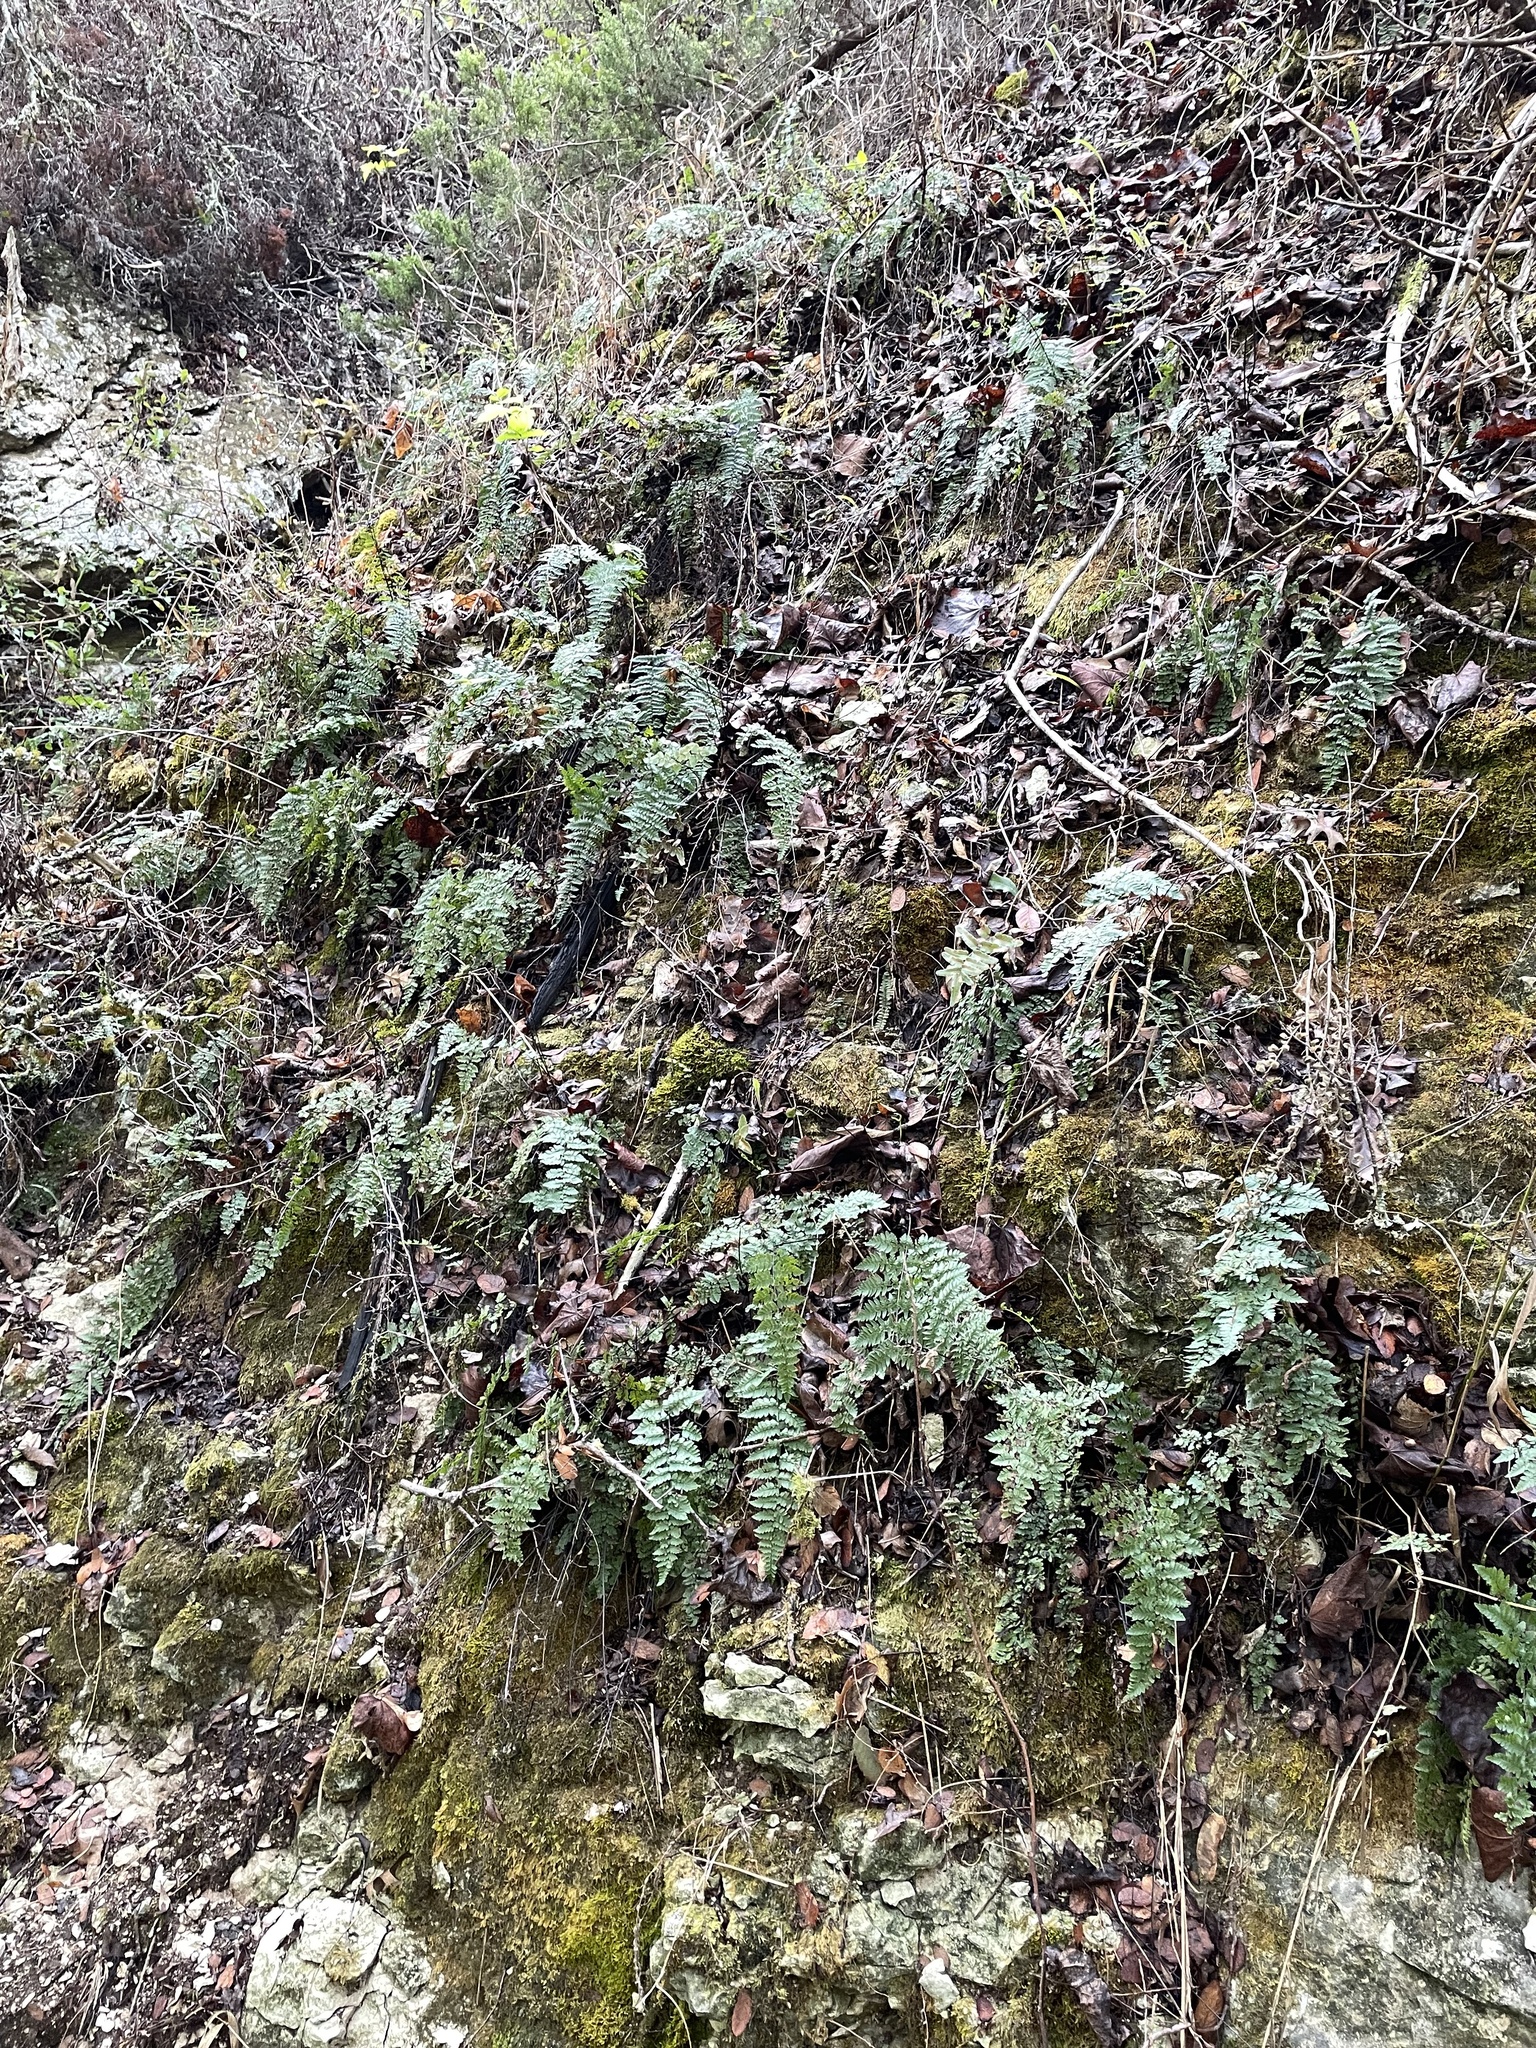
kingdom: Plantae
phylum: Tracheophyta
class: Polypodiopsida
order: Polypodiales
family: Pteridaceae
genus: Myriopteris
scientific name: Myriopteris alabamensis
